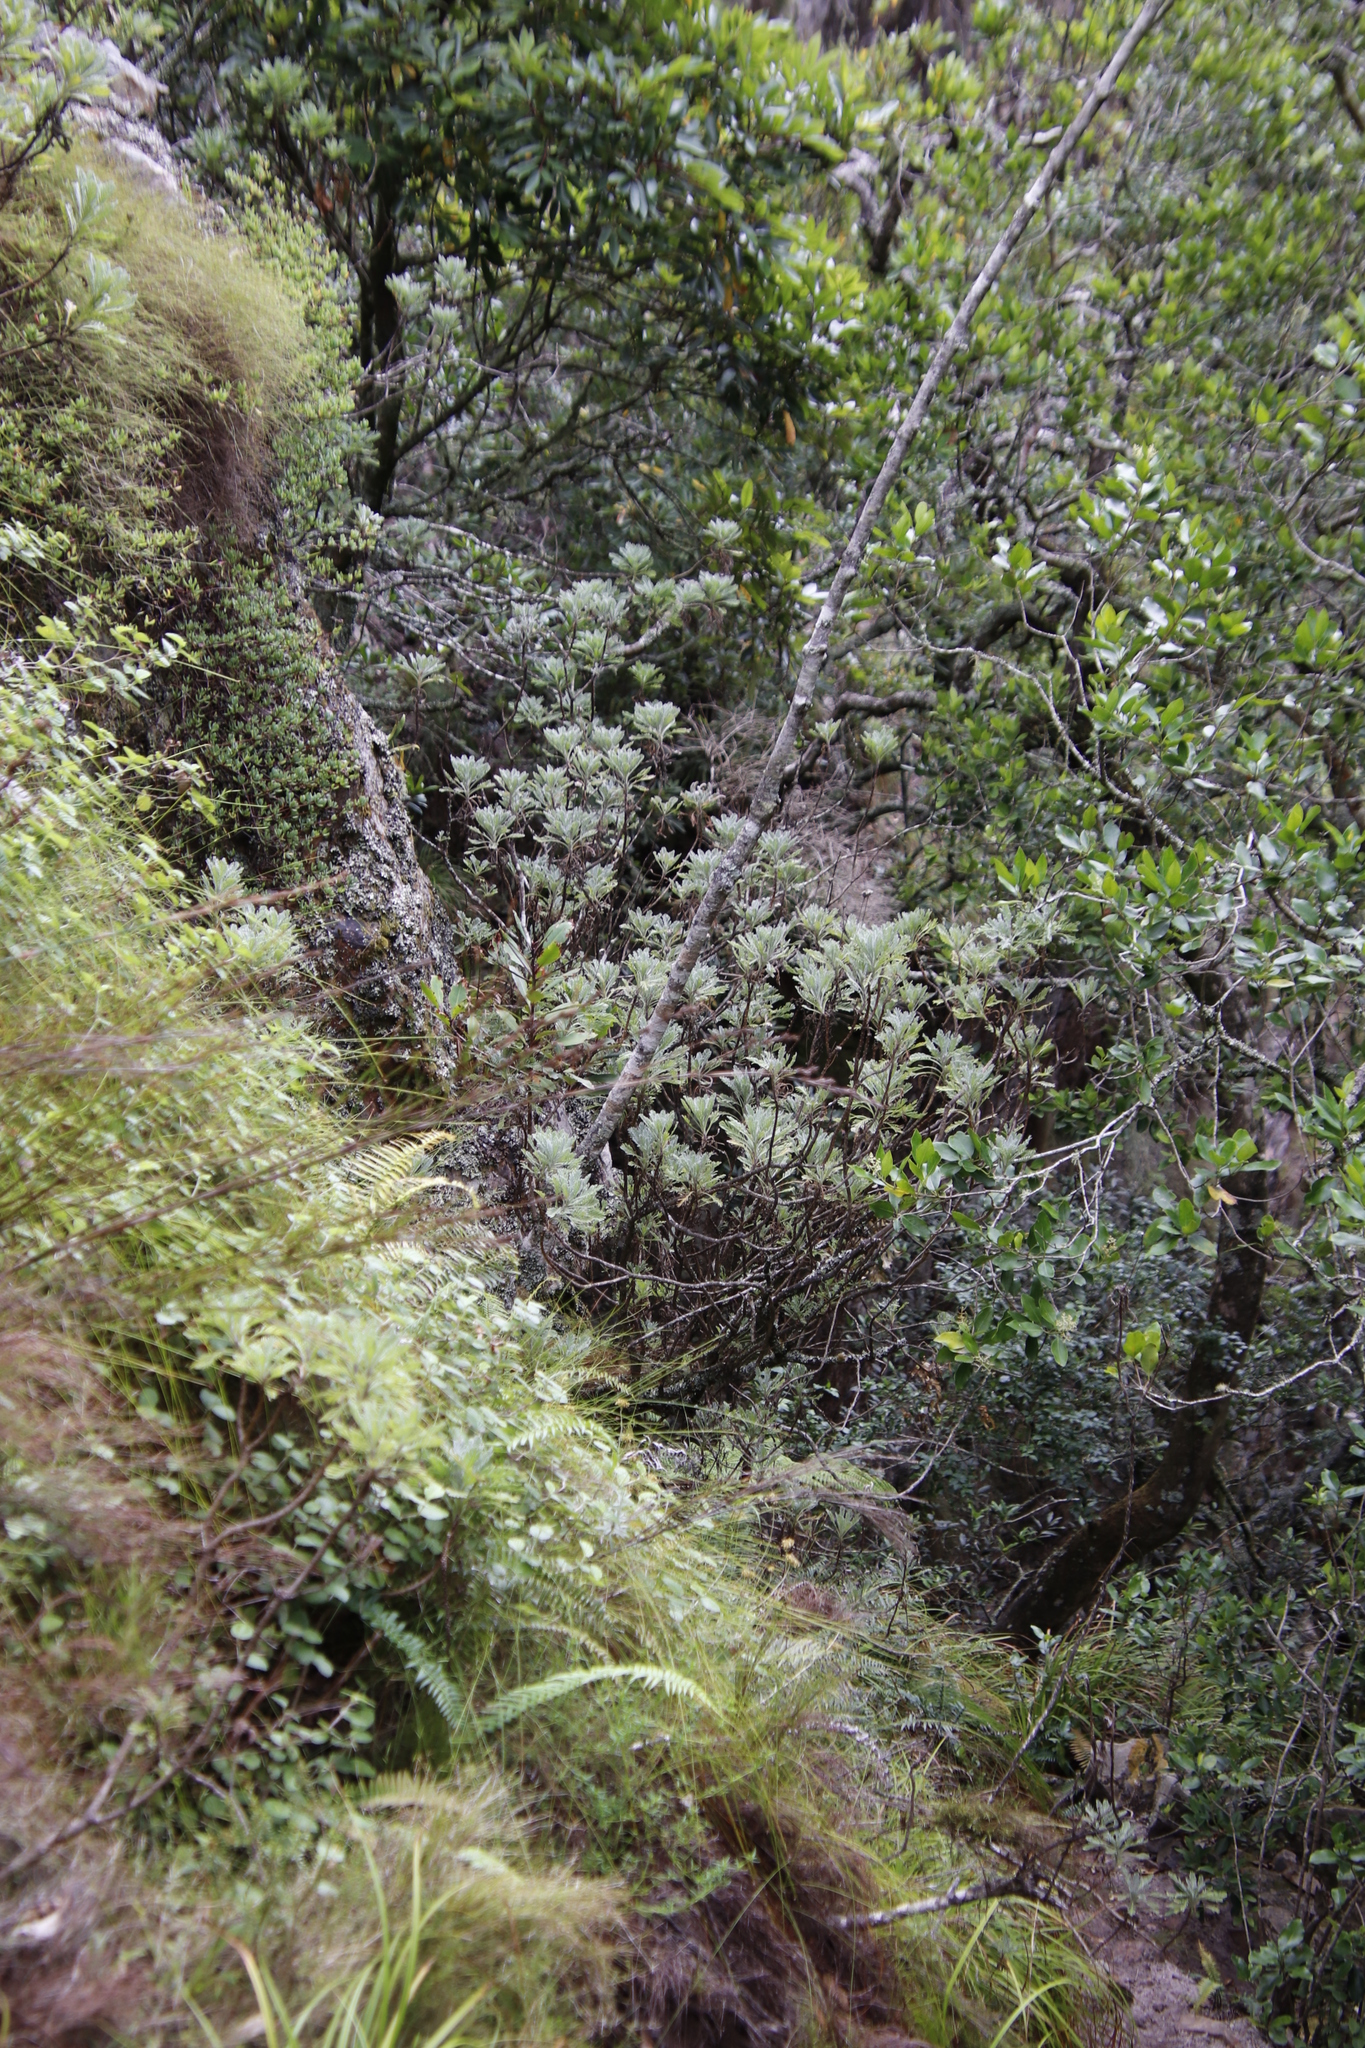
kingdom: Plantae
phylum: Tracheophyta
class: Magnoliopsida
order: Asterales
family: Asteraceae
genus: Euryops
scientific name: Euryops pectinatus
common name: Gray-leaf euryops
